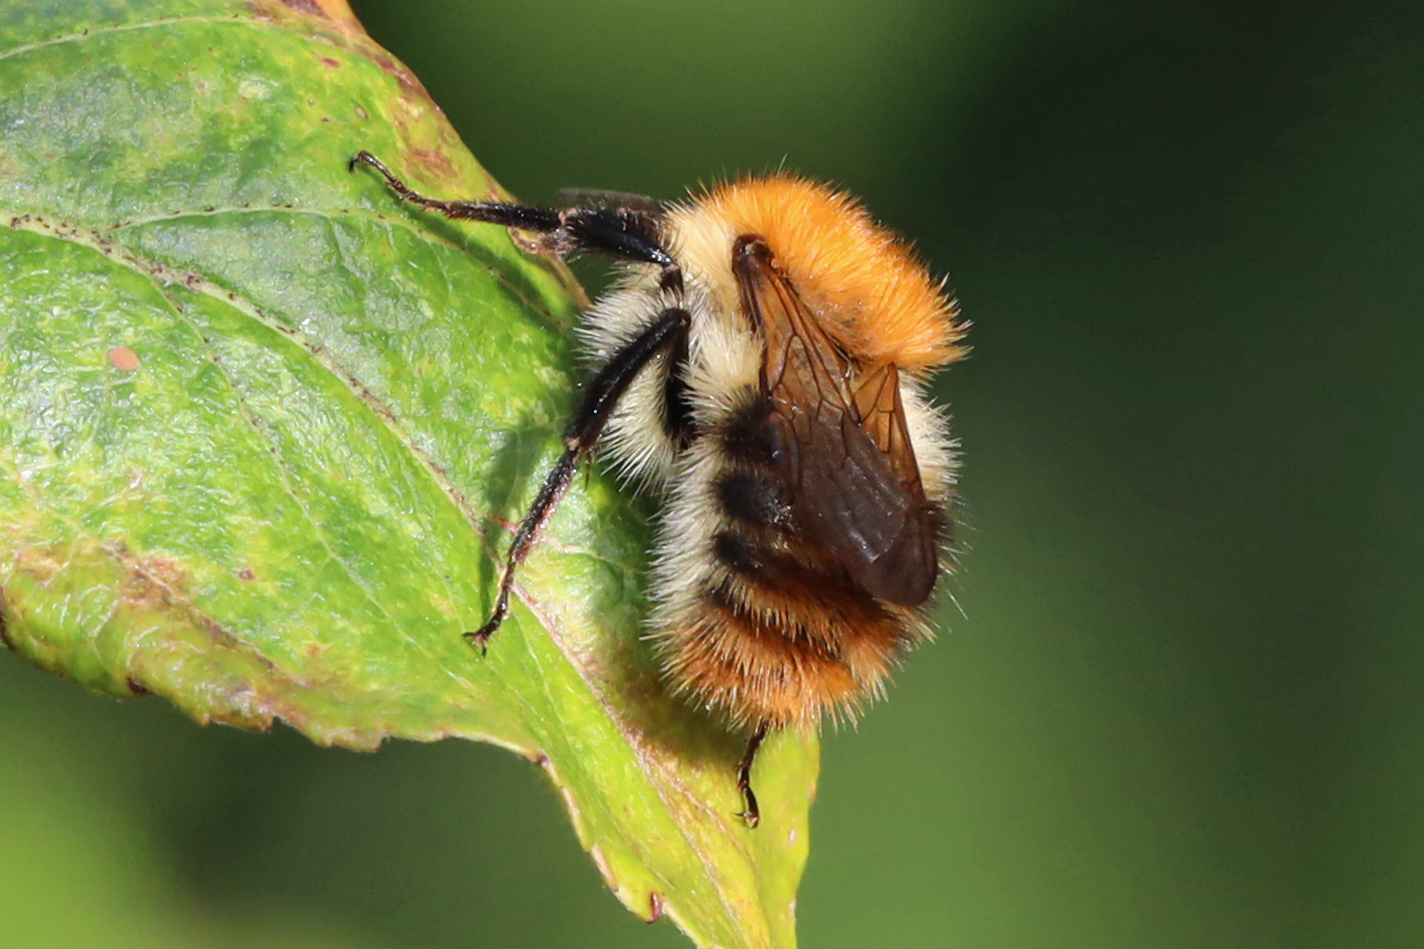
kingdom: Animalia
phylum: Arthropoda
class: Insecta
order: Hymenoptera
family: Apidae
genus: Bombus
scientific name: Bombus pascuorum
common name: Common carder bee
